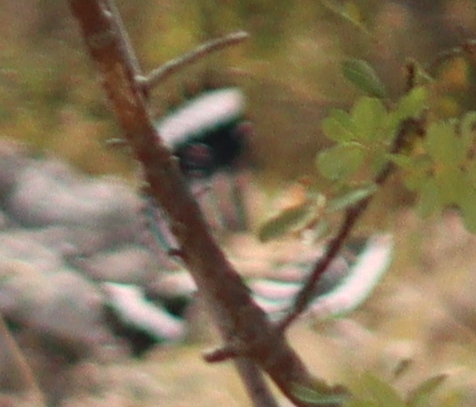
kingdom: Animalia
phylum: Chordata
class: Aves
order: Bucerotiformes
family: Upupidae
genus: Upupa
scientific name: Upupa epops
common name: Eurasian hoopoe
